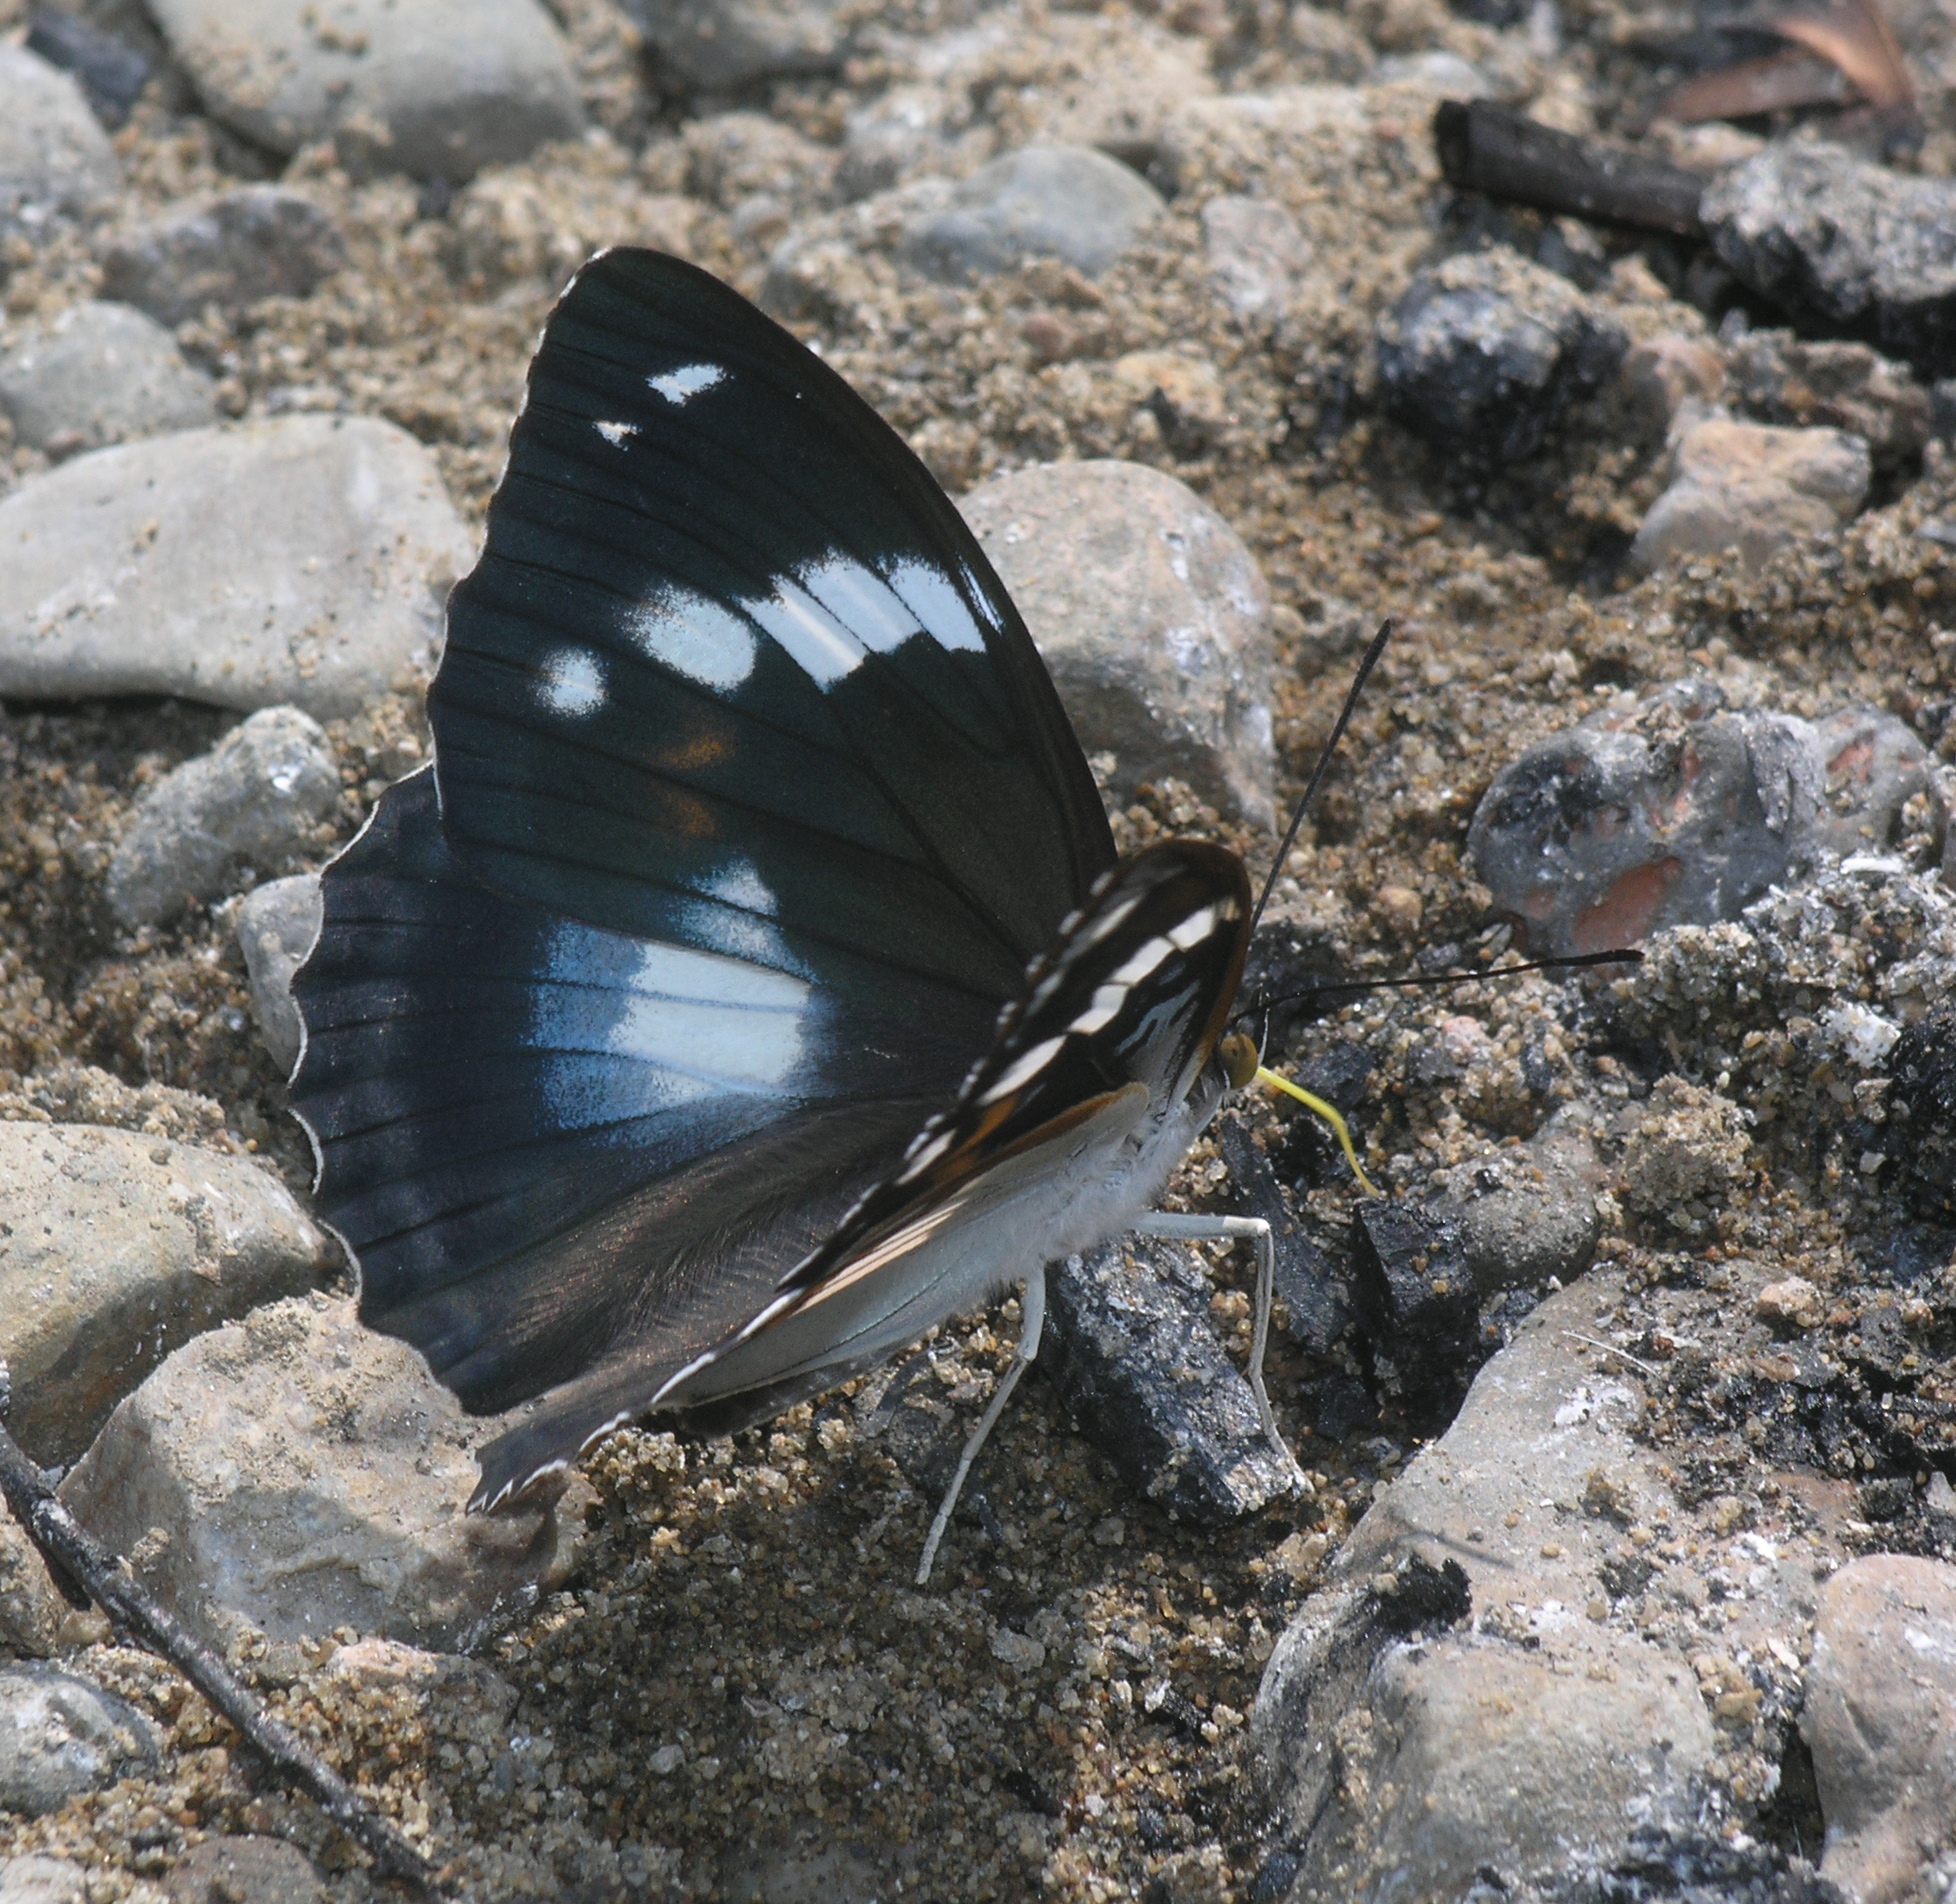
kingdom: Animalia
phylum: Arthropoda
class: Insecta
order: Lepidoptera
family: Nymphalidae
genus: Apatura
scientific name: Apatura Mimathyma schrencki
